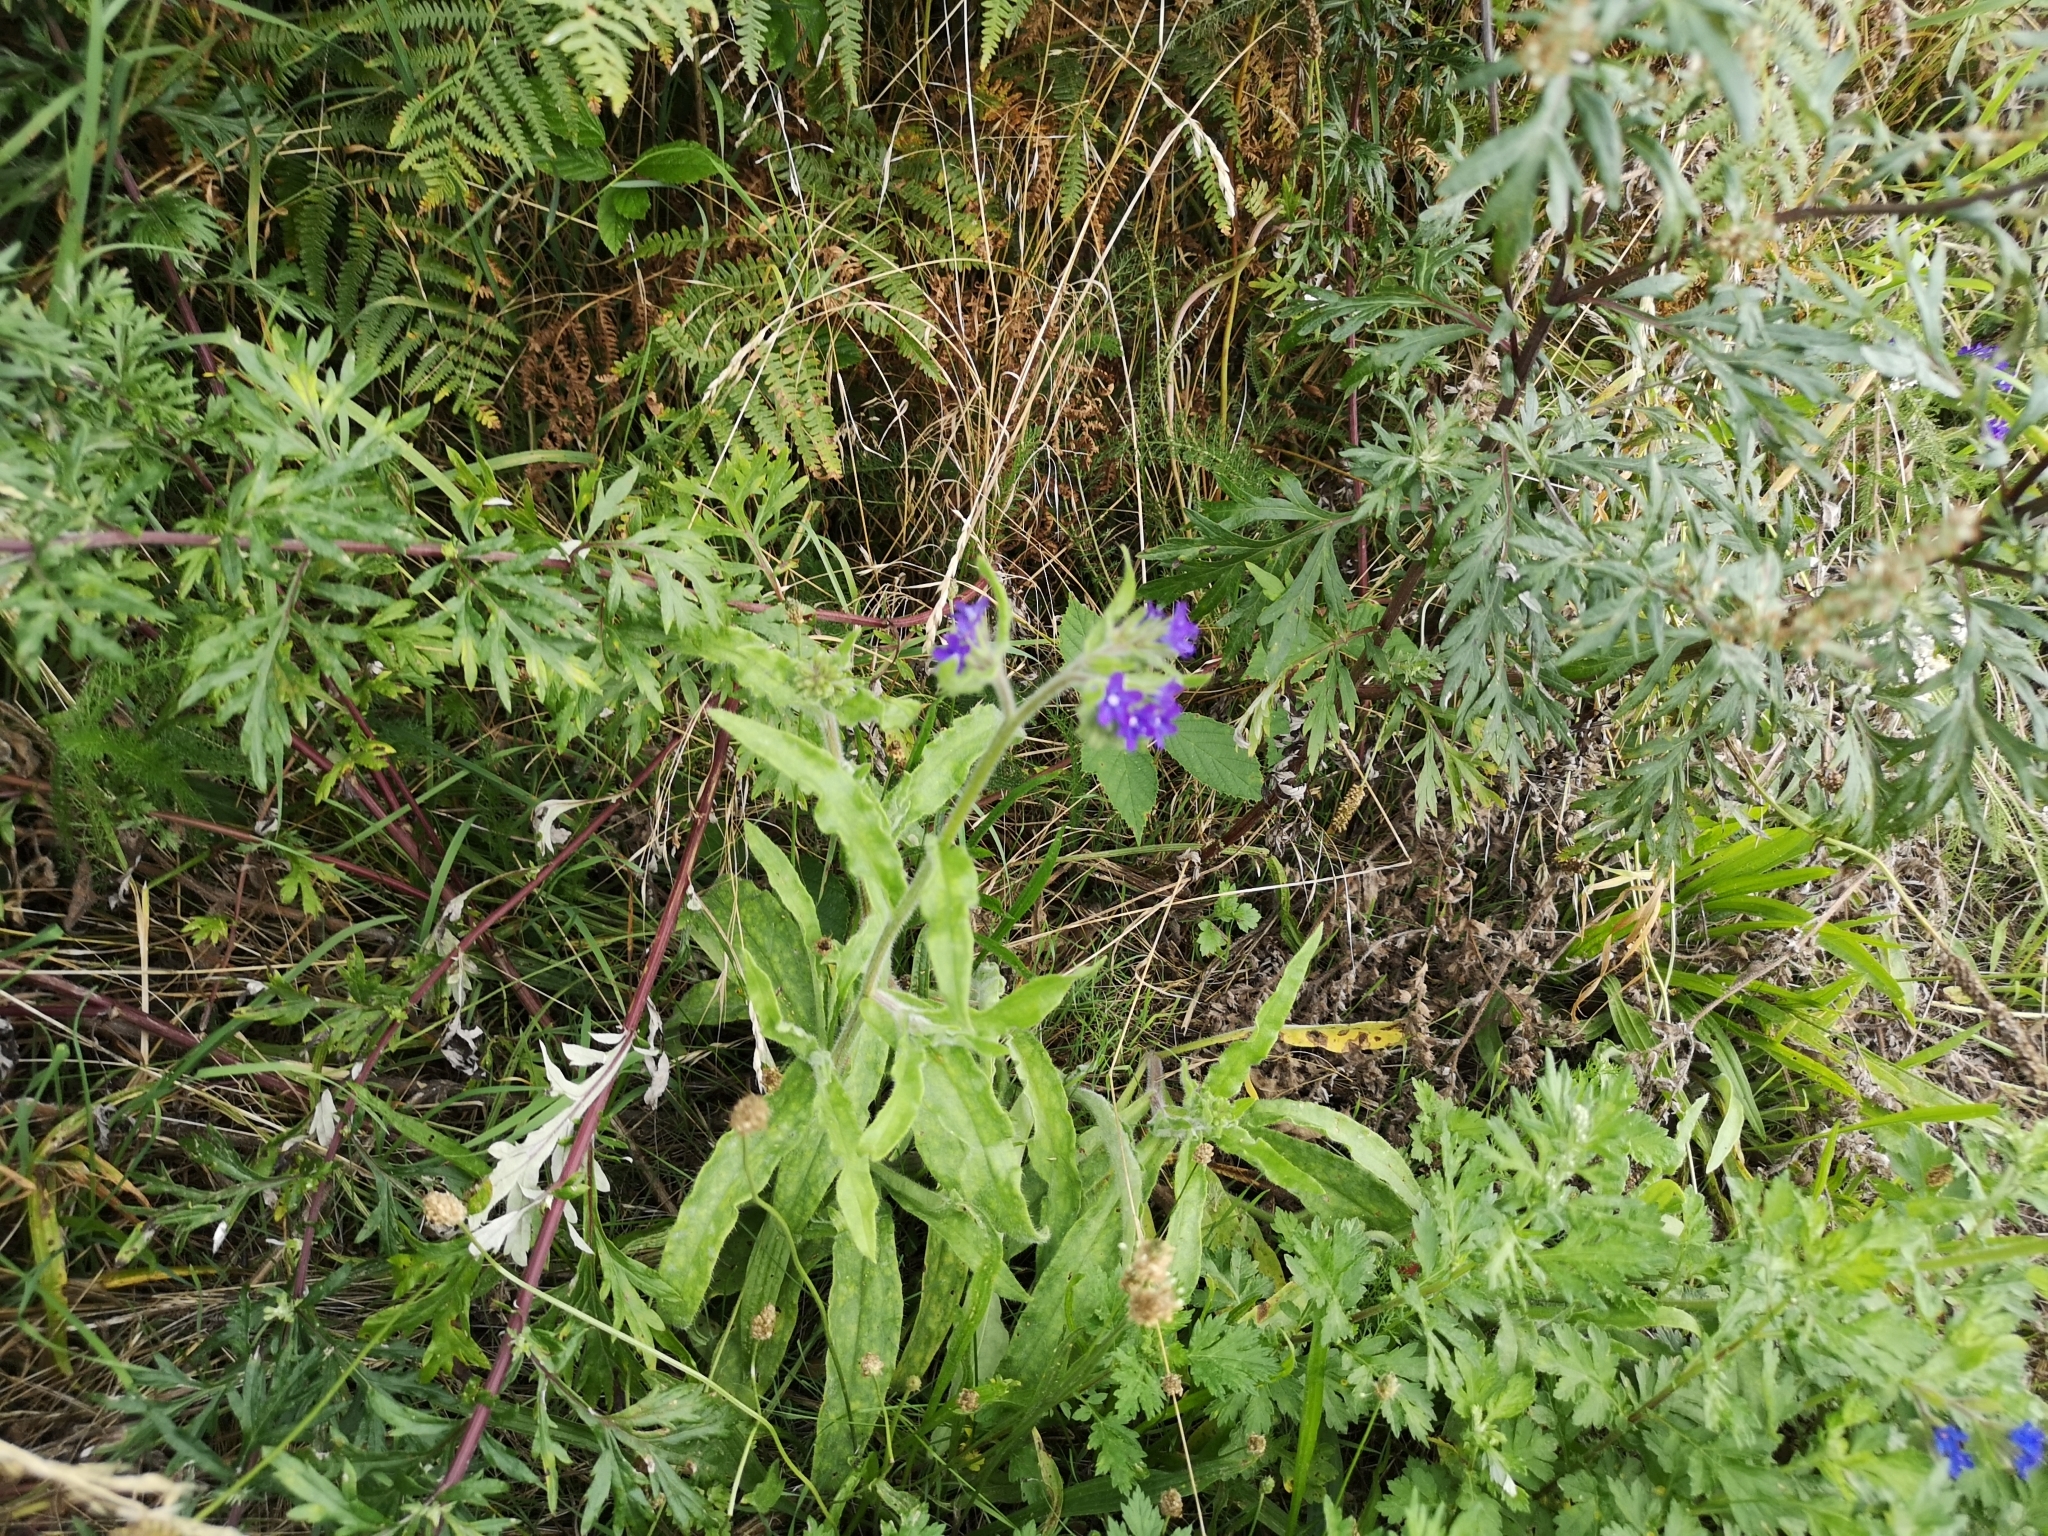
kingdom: Plantae
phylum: Tracheophyta
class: Magnoliopsida
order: Boraginales
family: Boraginaceae
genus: Anchusa
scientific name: Anchusa officinalis
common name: Alkanet
